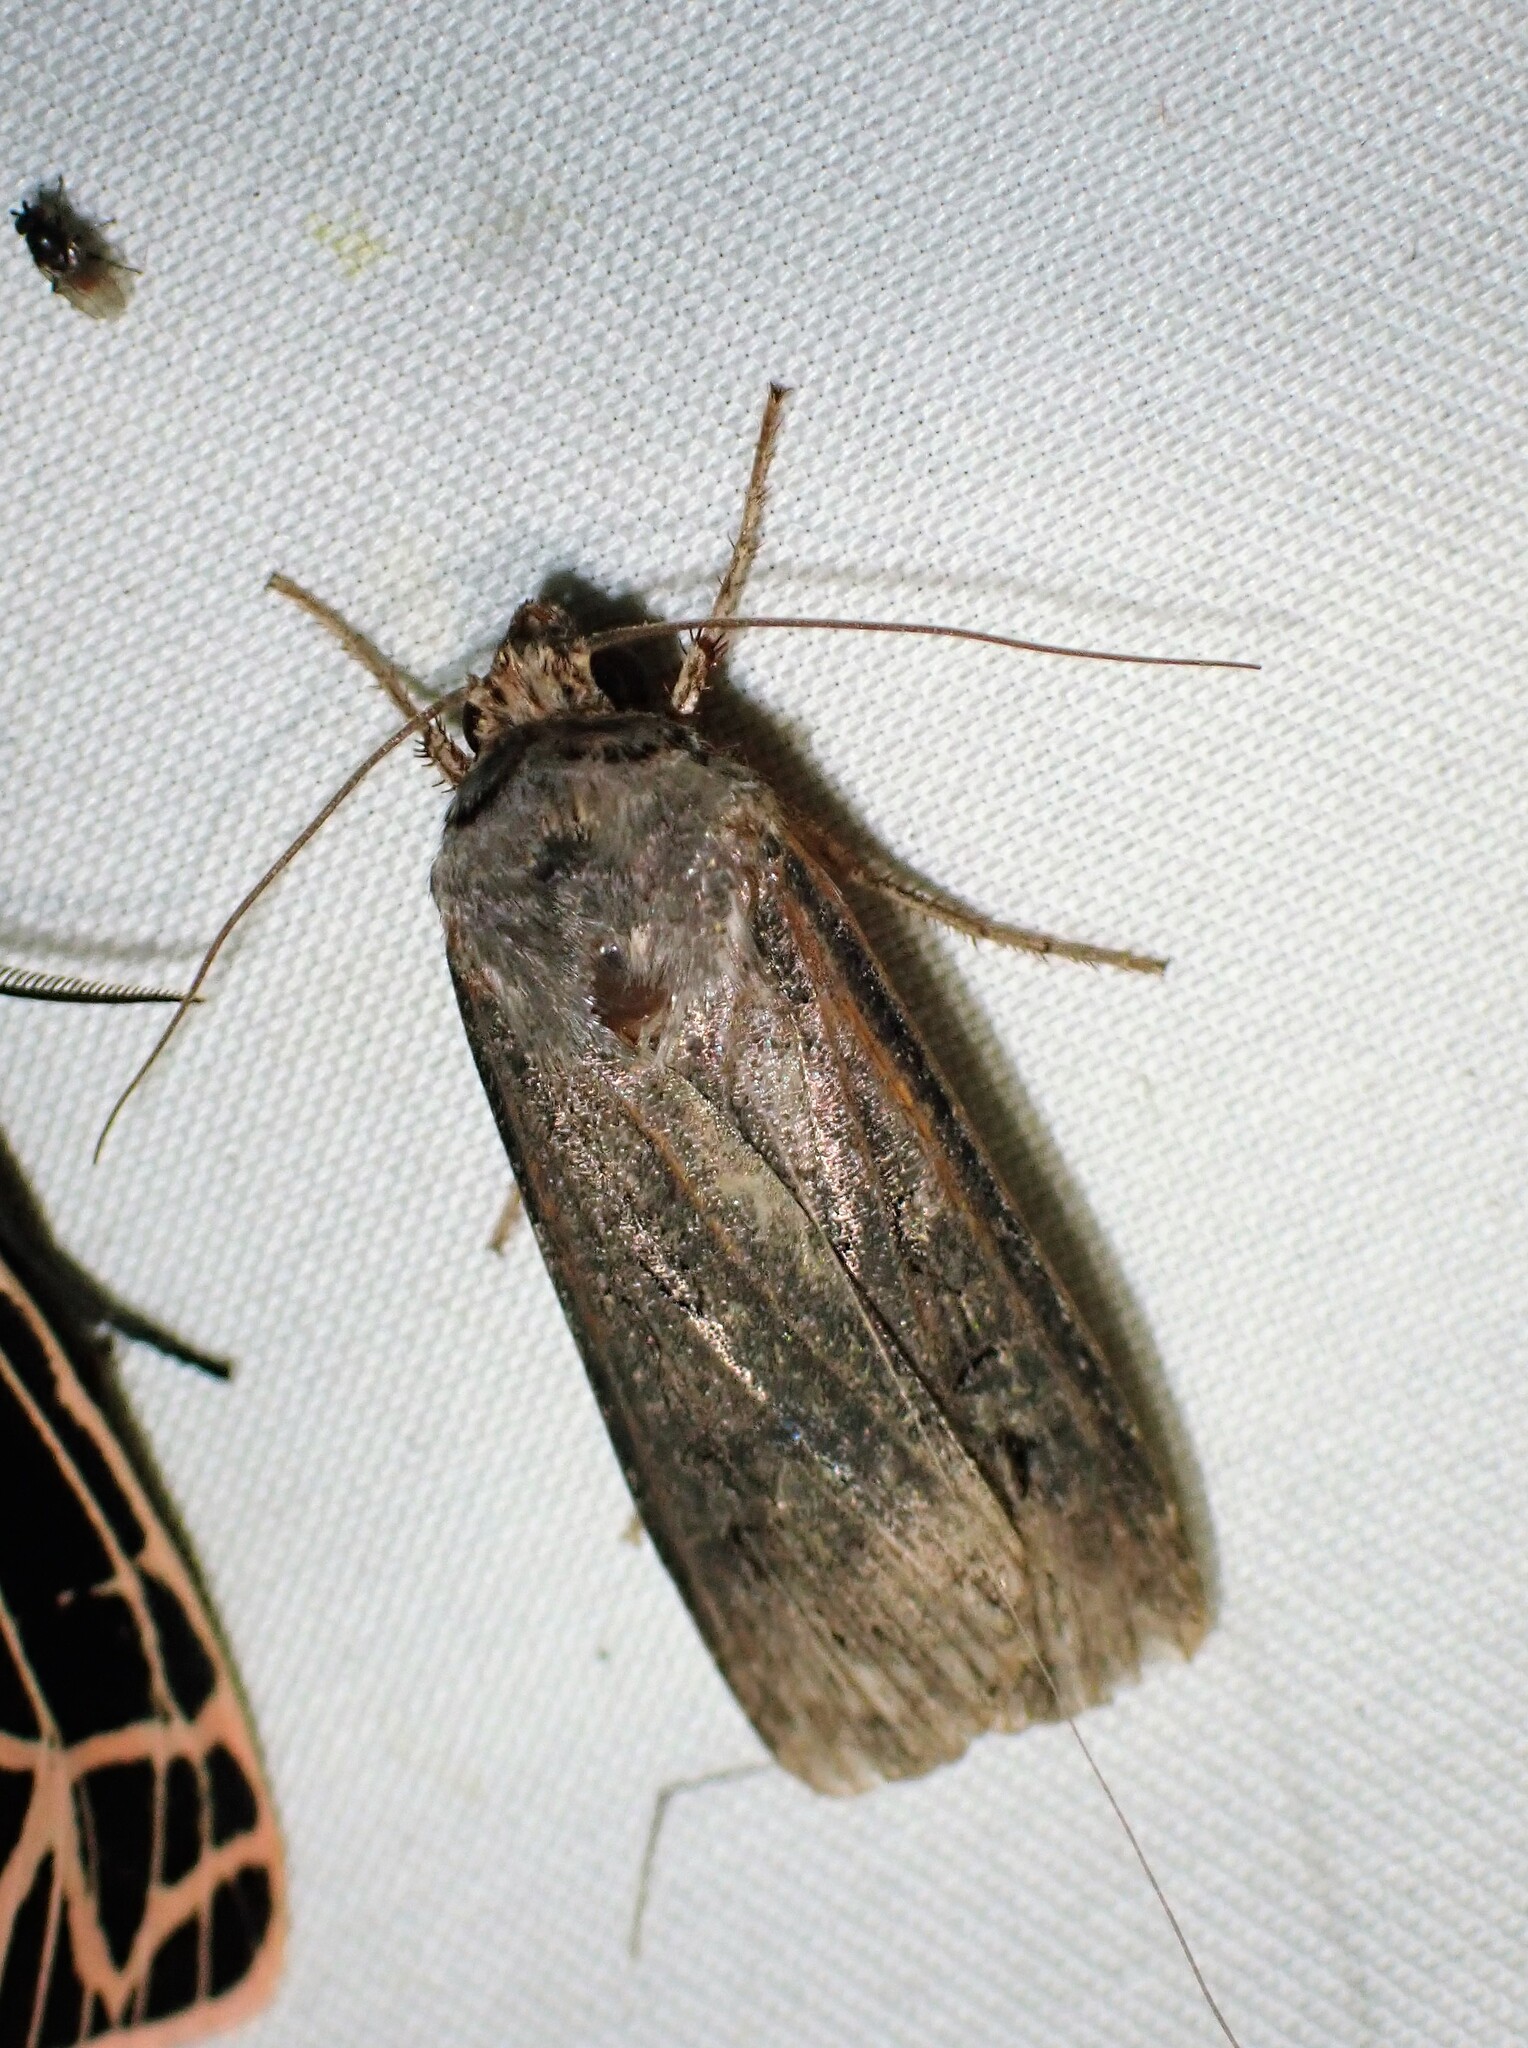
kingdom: Animalia
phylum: Arthropoda
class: Insecta
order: Lepidoptera
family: Noctuidae
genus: Agrotis
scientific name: Agrotis ipsilon
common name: Dark sword-grass
